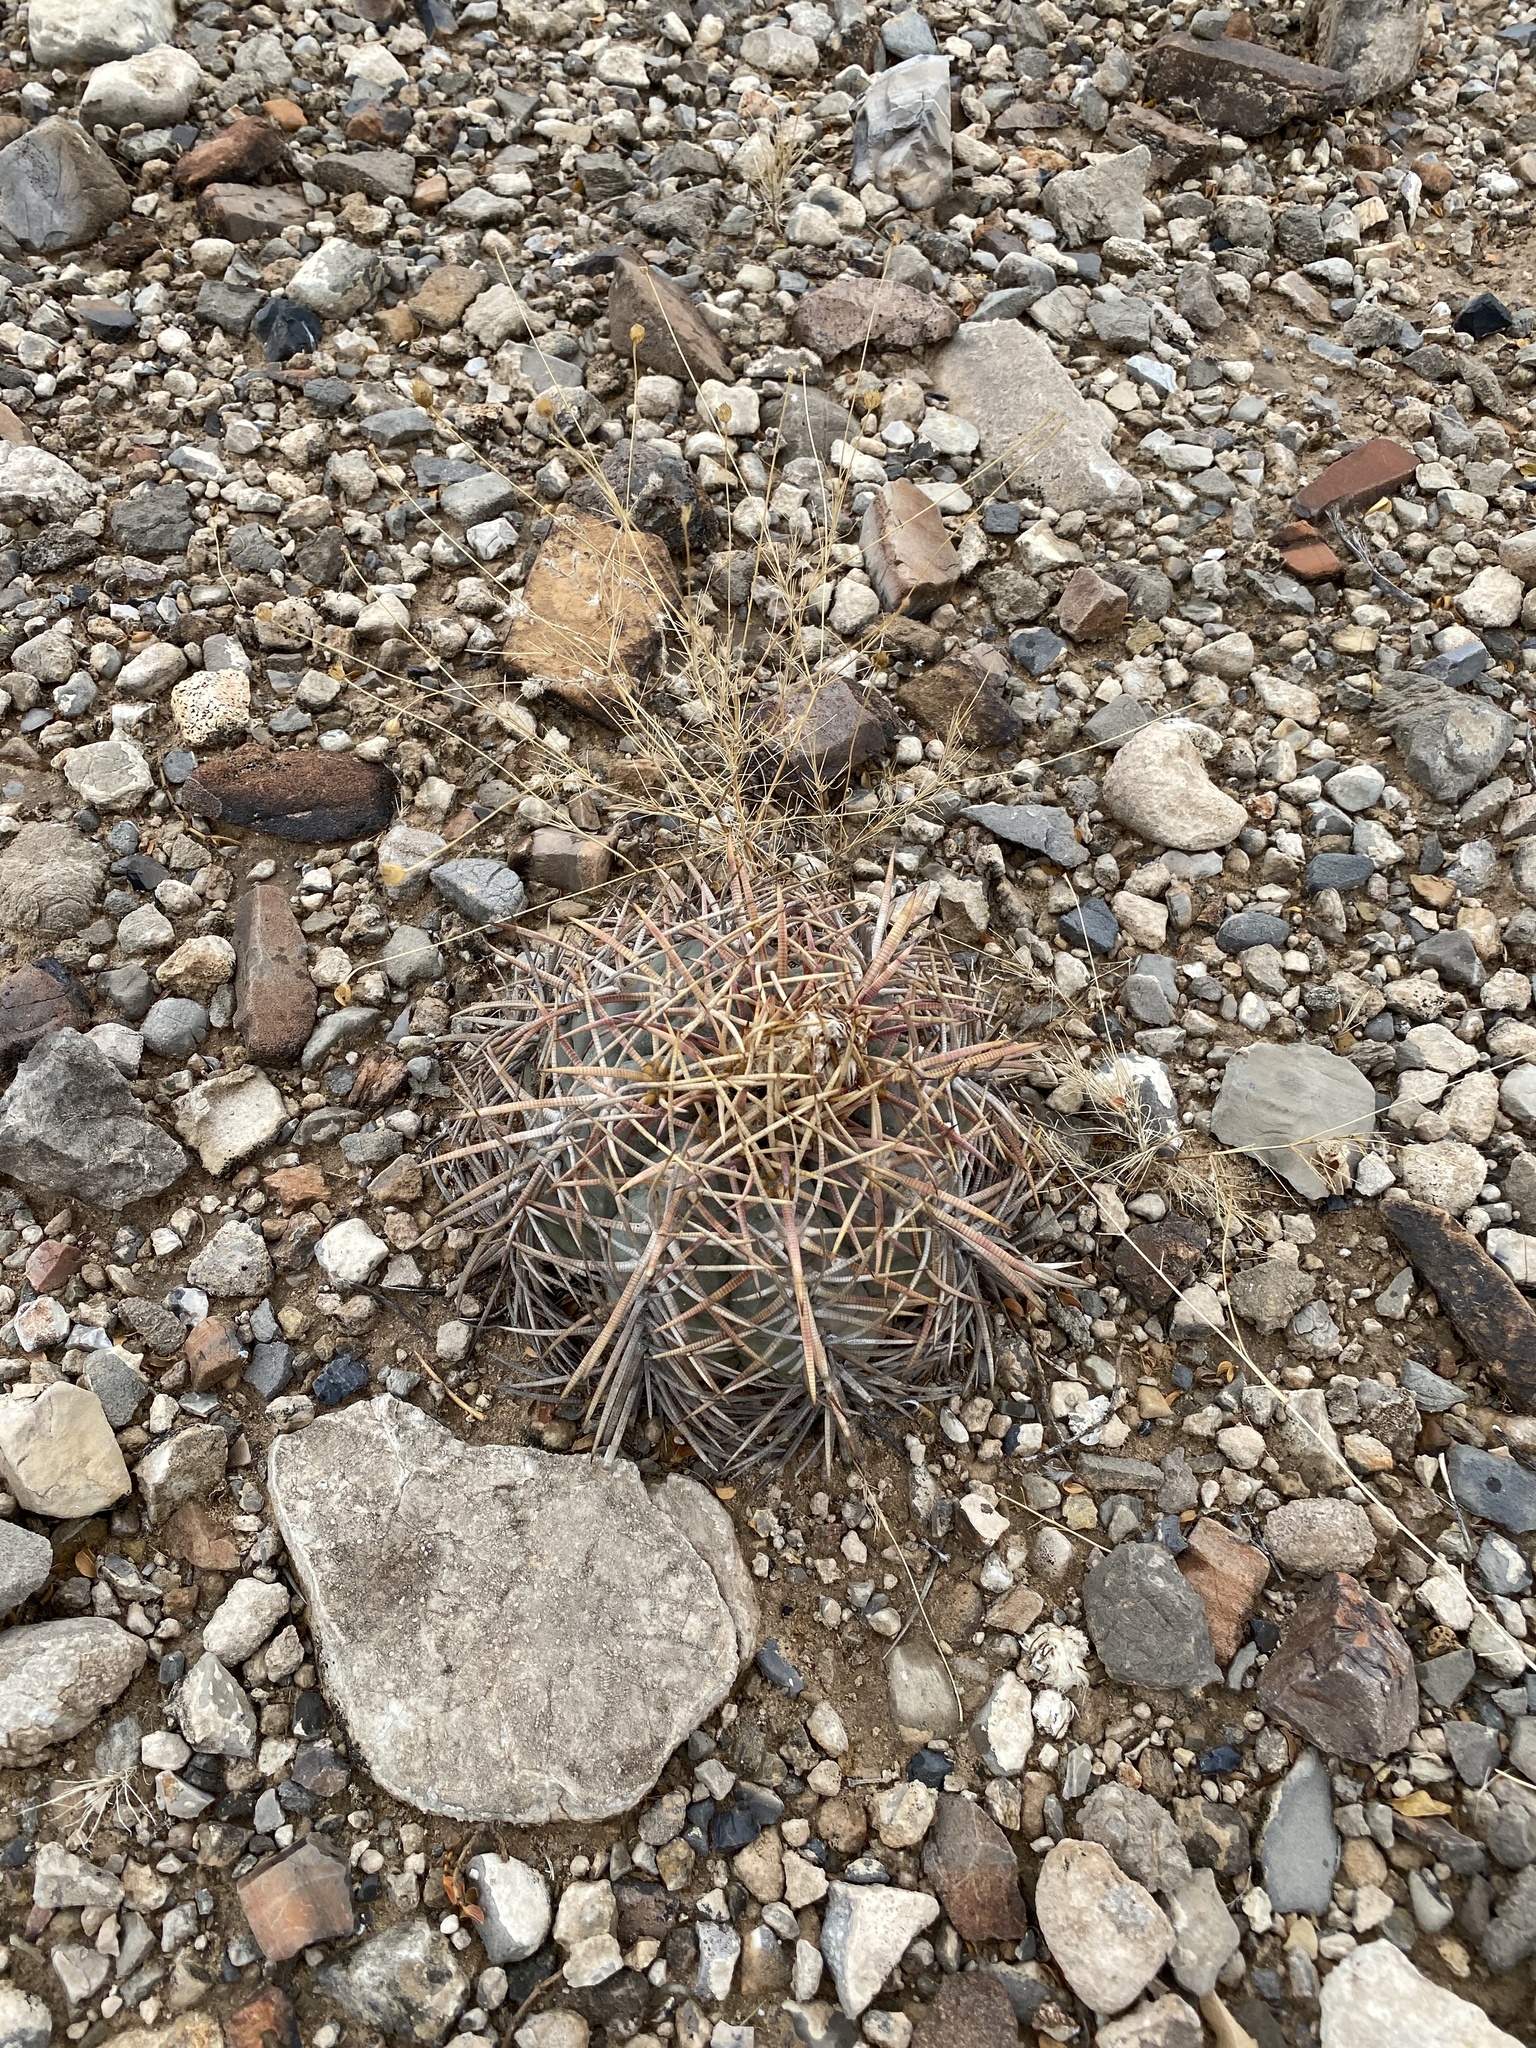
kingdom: Plantae
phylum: Tracheophyta
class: Magnoliopsida
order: Caryophyllales
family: Cactaceae
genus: Echinocactus
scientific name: Echinocactus horizonthalonius
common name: Devilshead
